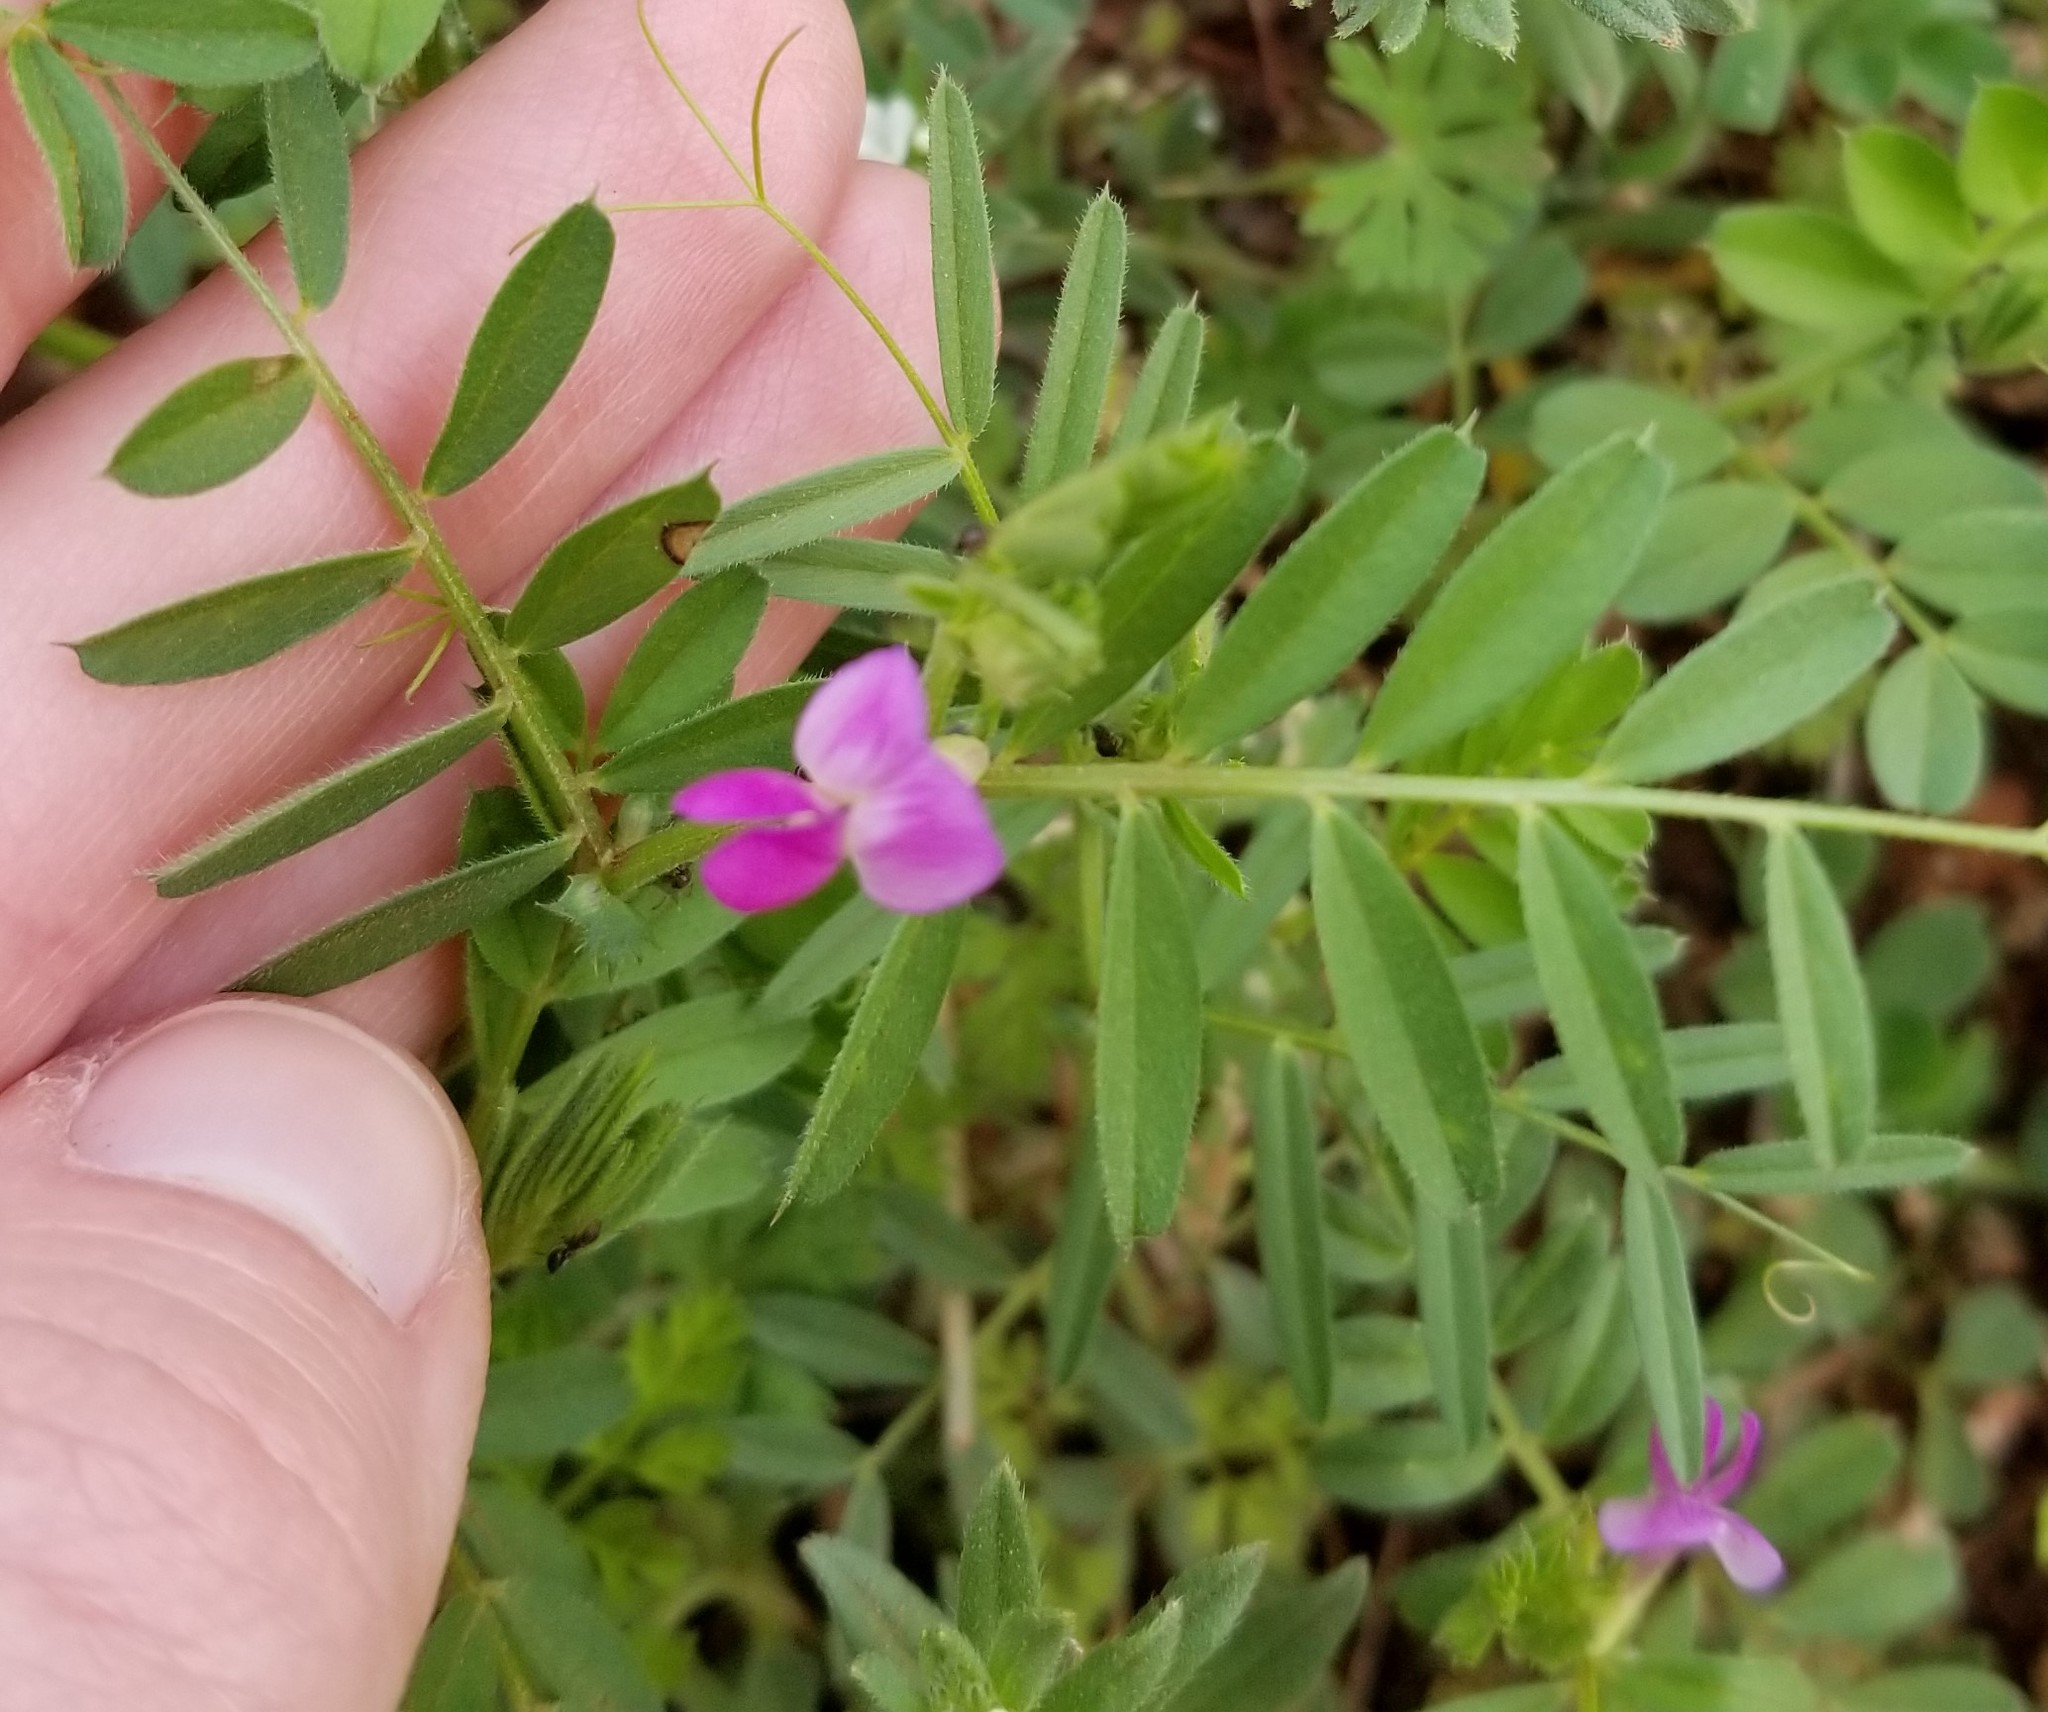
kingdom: Plantae
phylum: Tracheophyta
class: Magnoliopsida
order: Fabales
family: Fabaceae
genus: Vicia
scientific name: Vicia sativa
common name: Garden vetch
